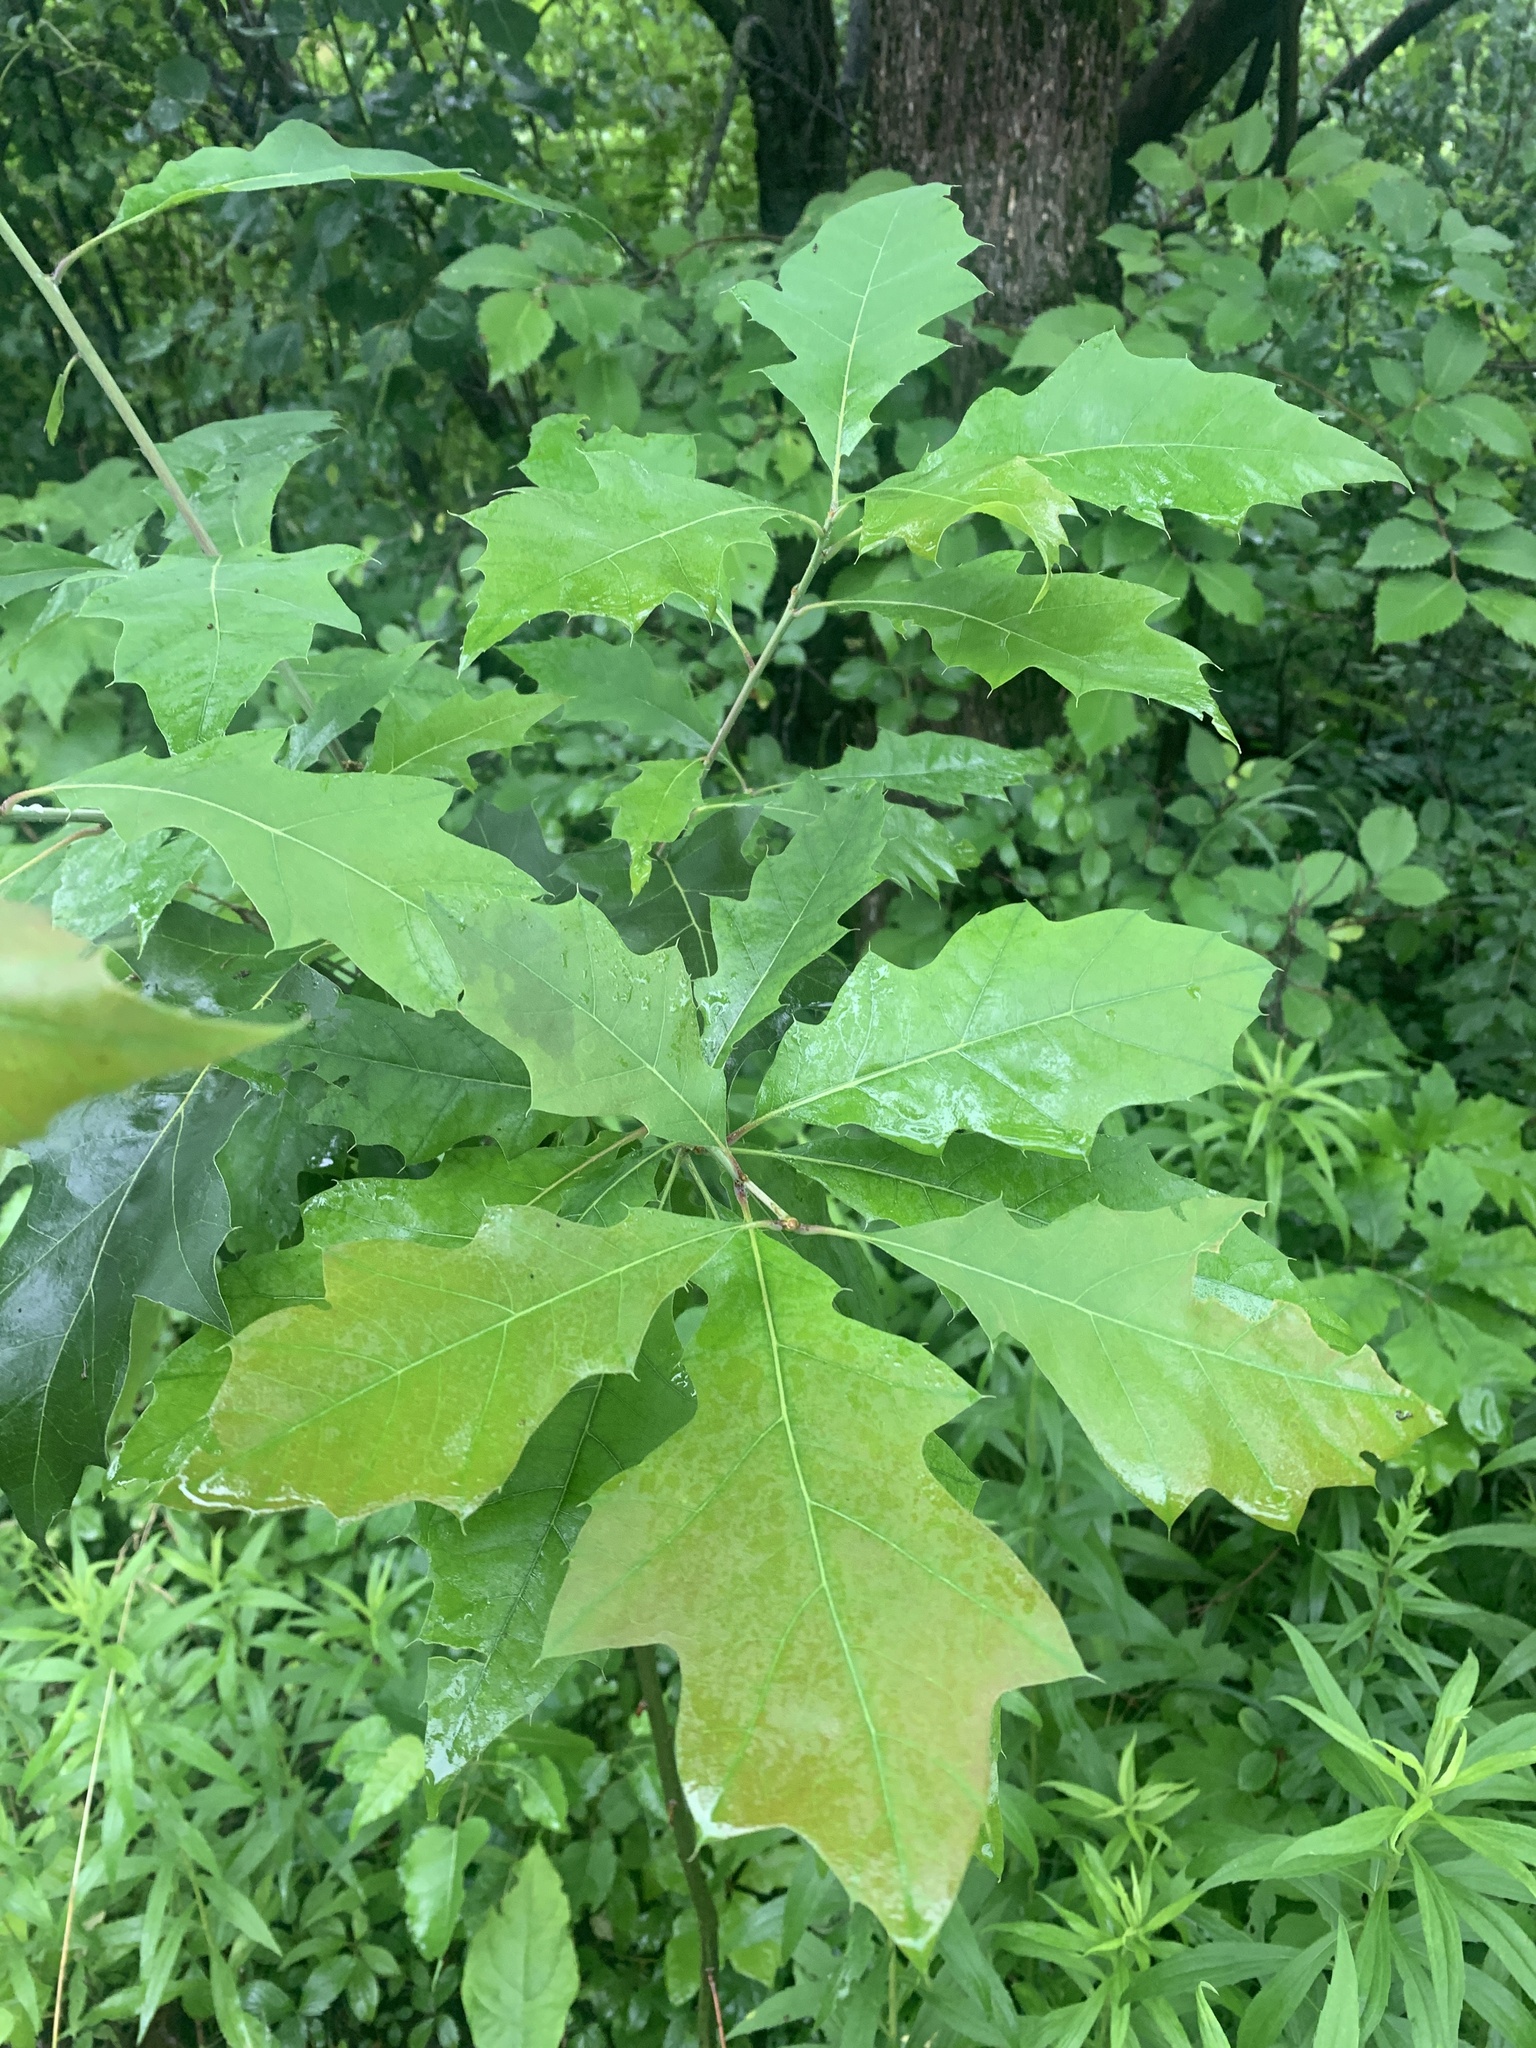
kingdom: Plantae
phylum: Tracheophyta
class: Magnoliopsida
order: Fagales
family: Fagaceae
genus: Quercus
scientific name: Quercus rubra
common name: Red oak
